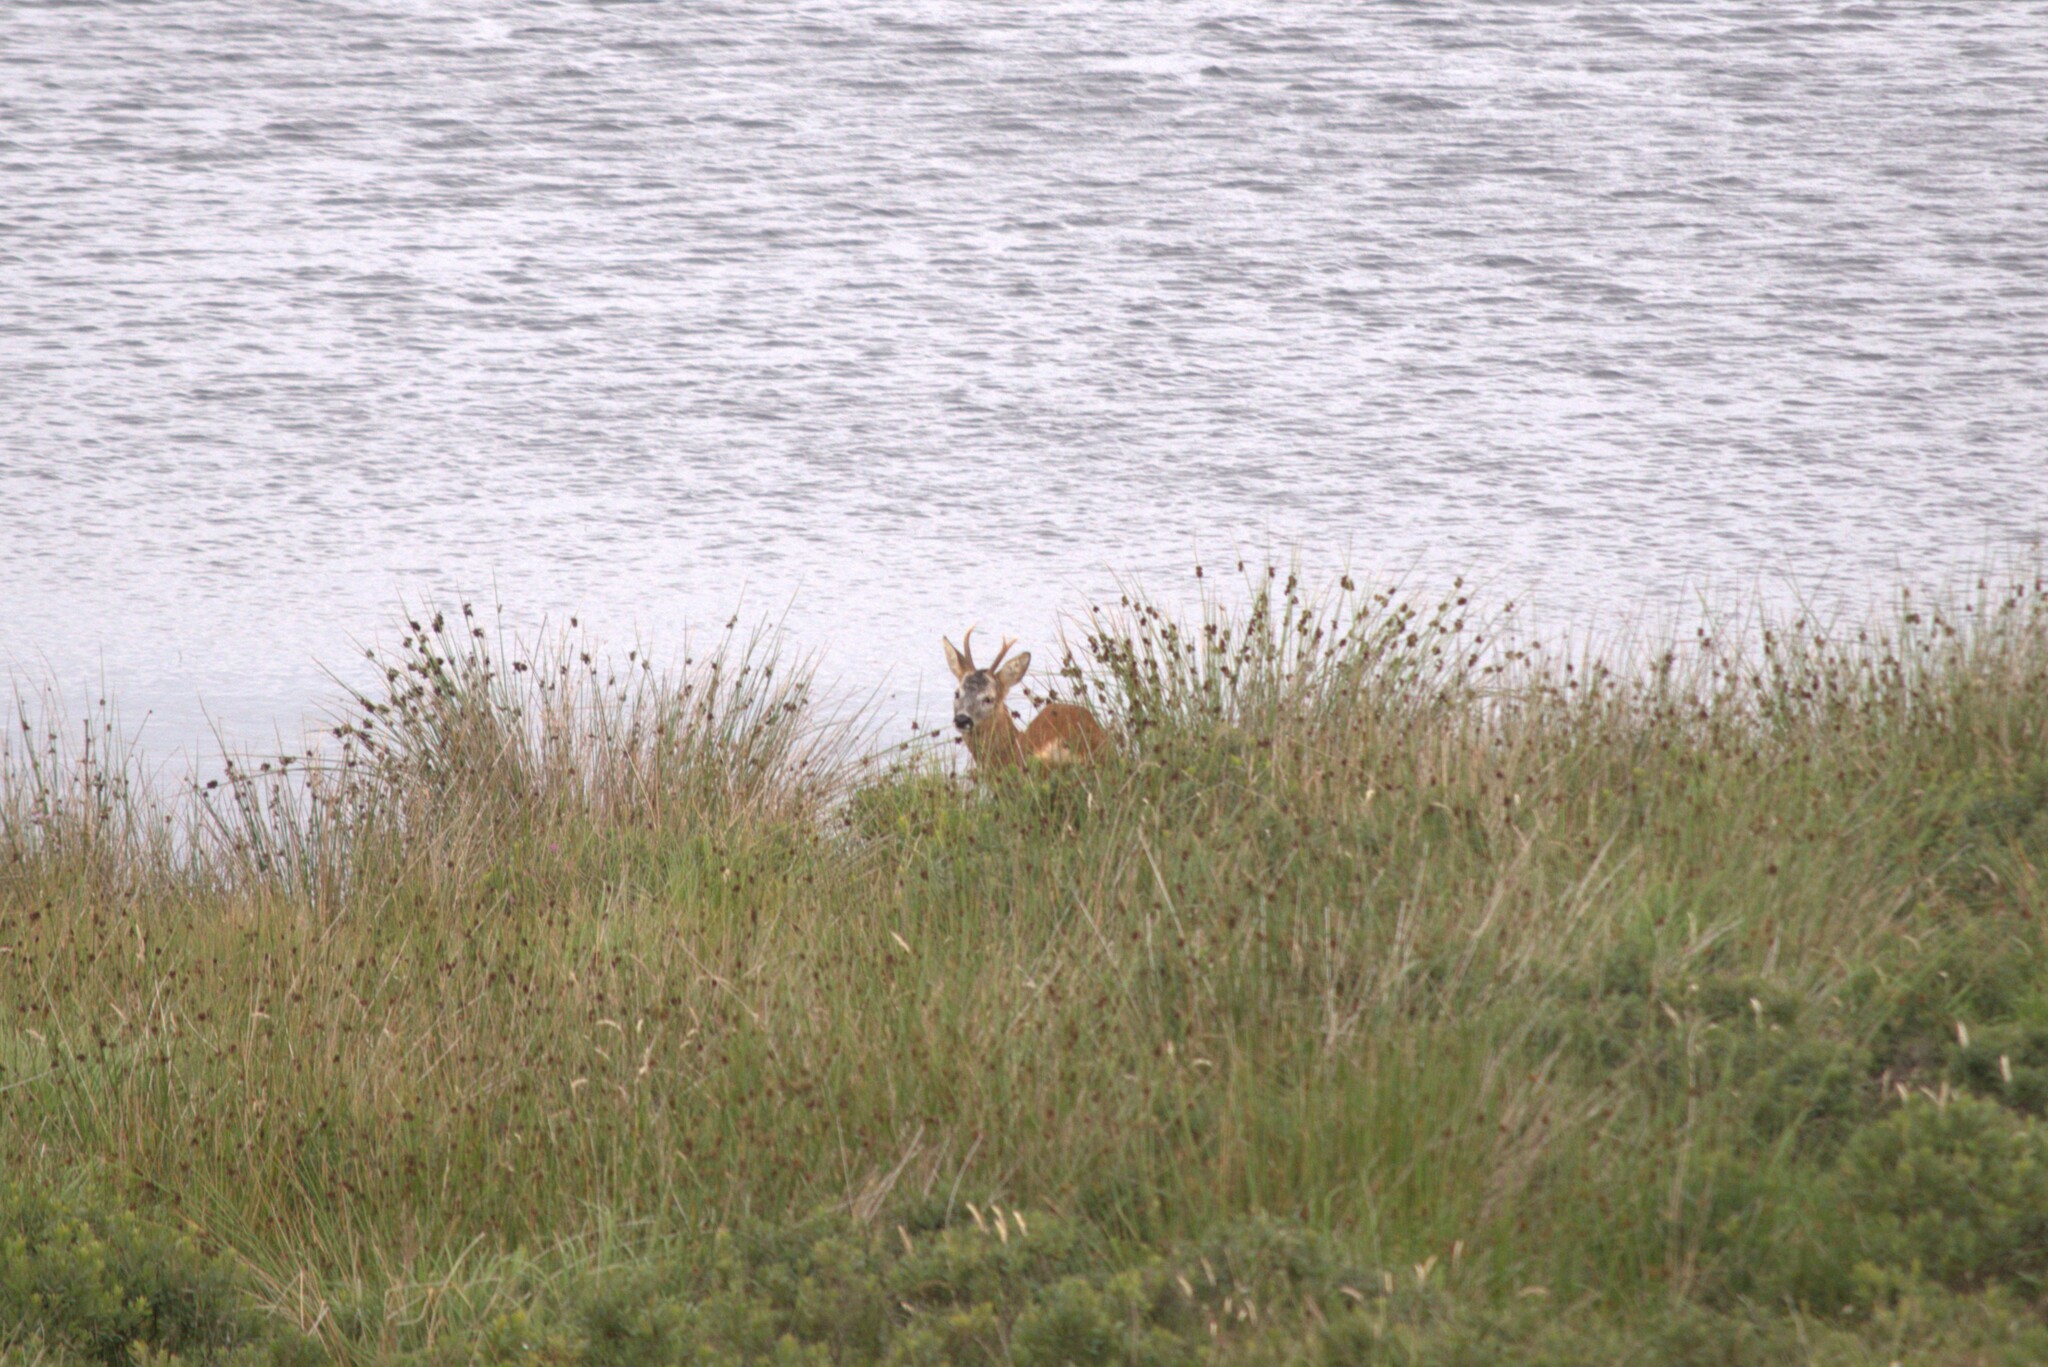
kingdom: Animalia
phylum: Chordata
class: Mammalia
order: Artiodactyla
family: Cervidae
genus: Capreolus
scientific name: Capreolus capreolus
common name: Western roe deer
